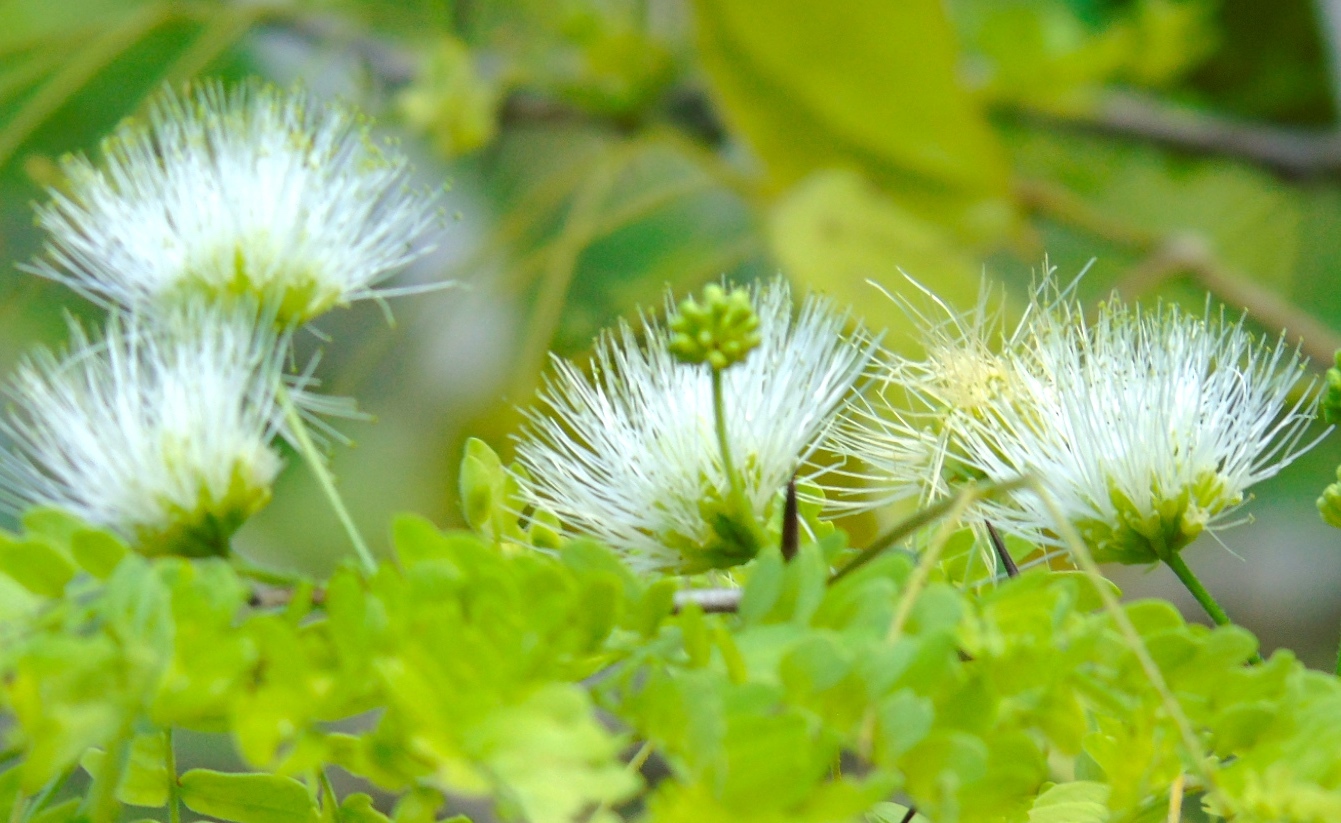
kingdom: Plantae
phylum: Tracheophyta
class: Magnoliopsida
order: Fabales
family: Fabaceae
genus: Calliandra
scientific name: Calliandra
